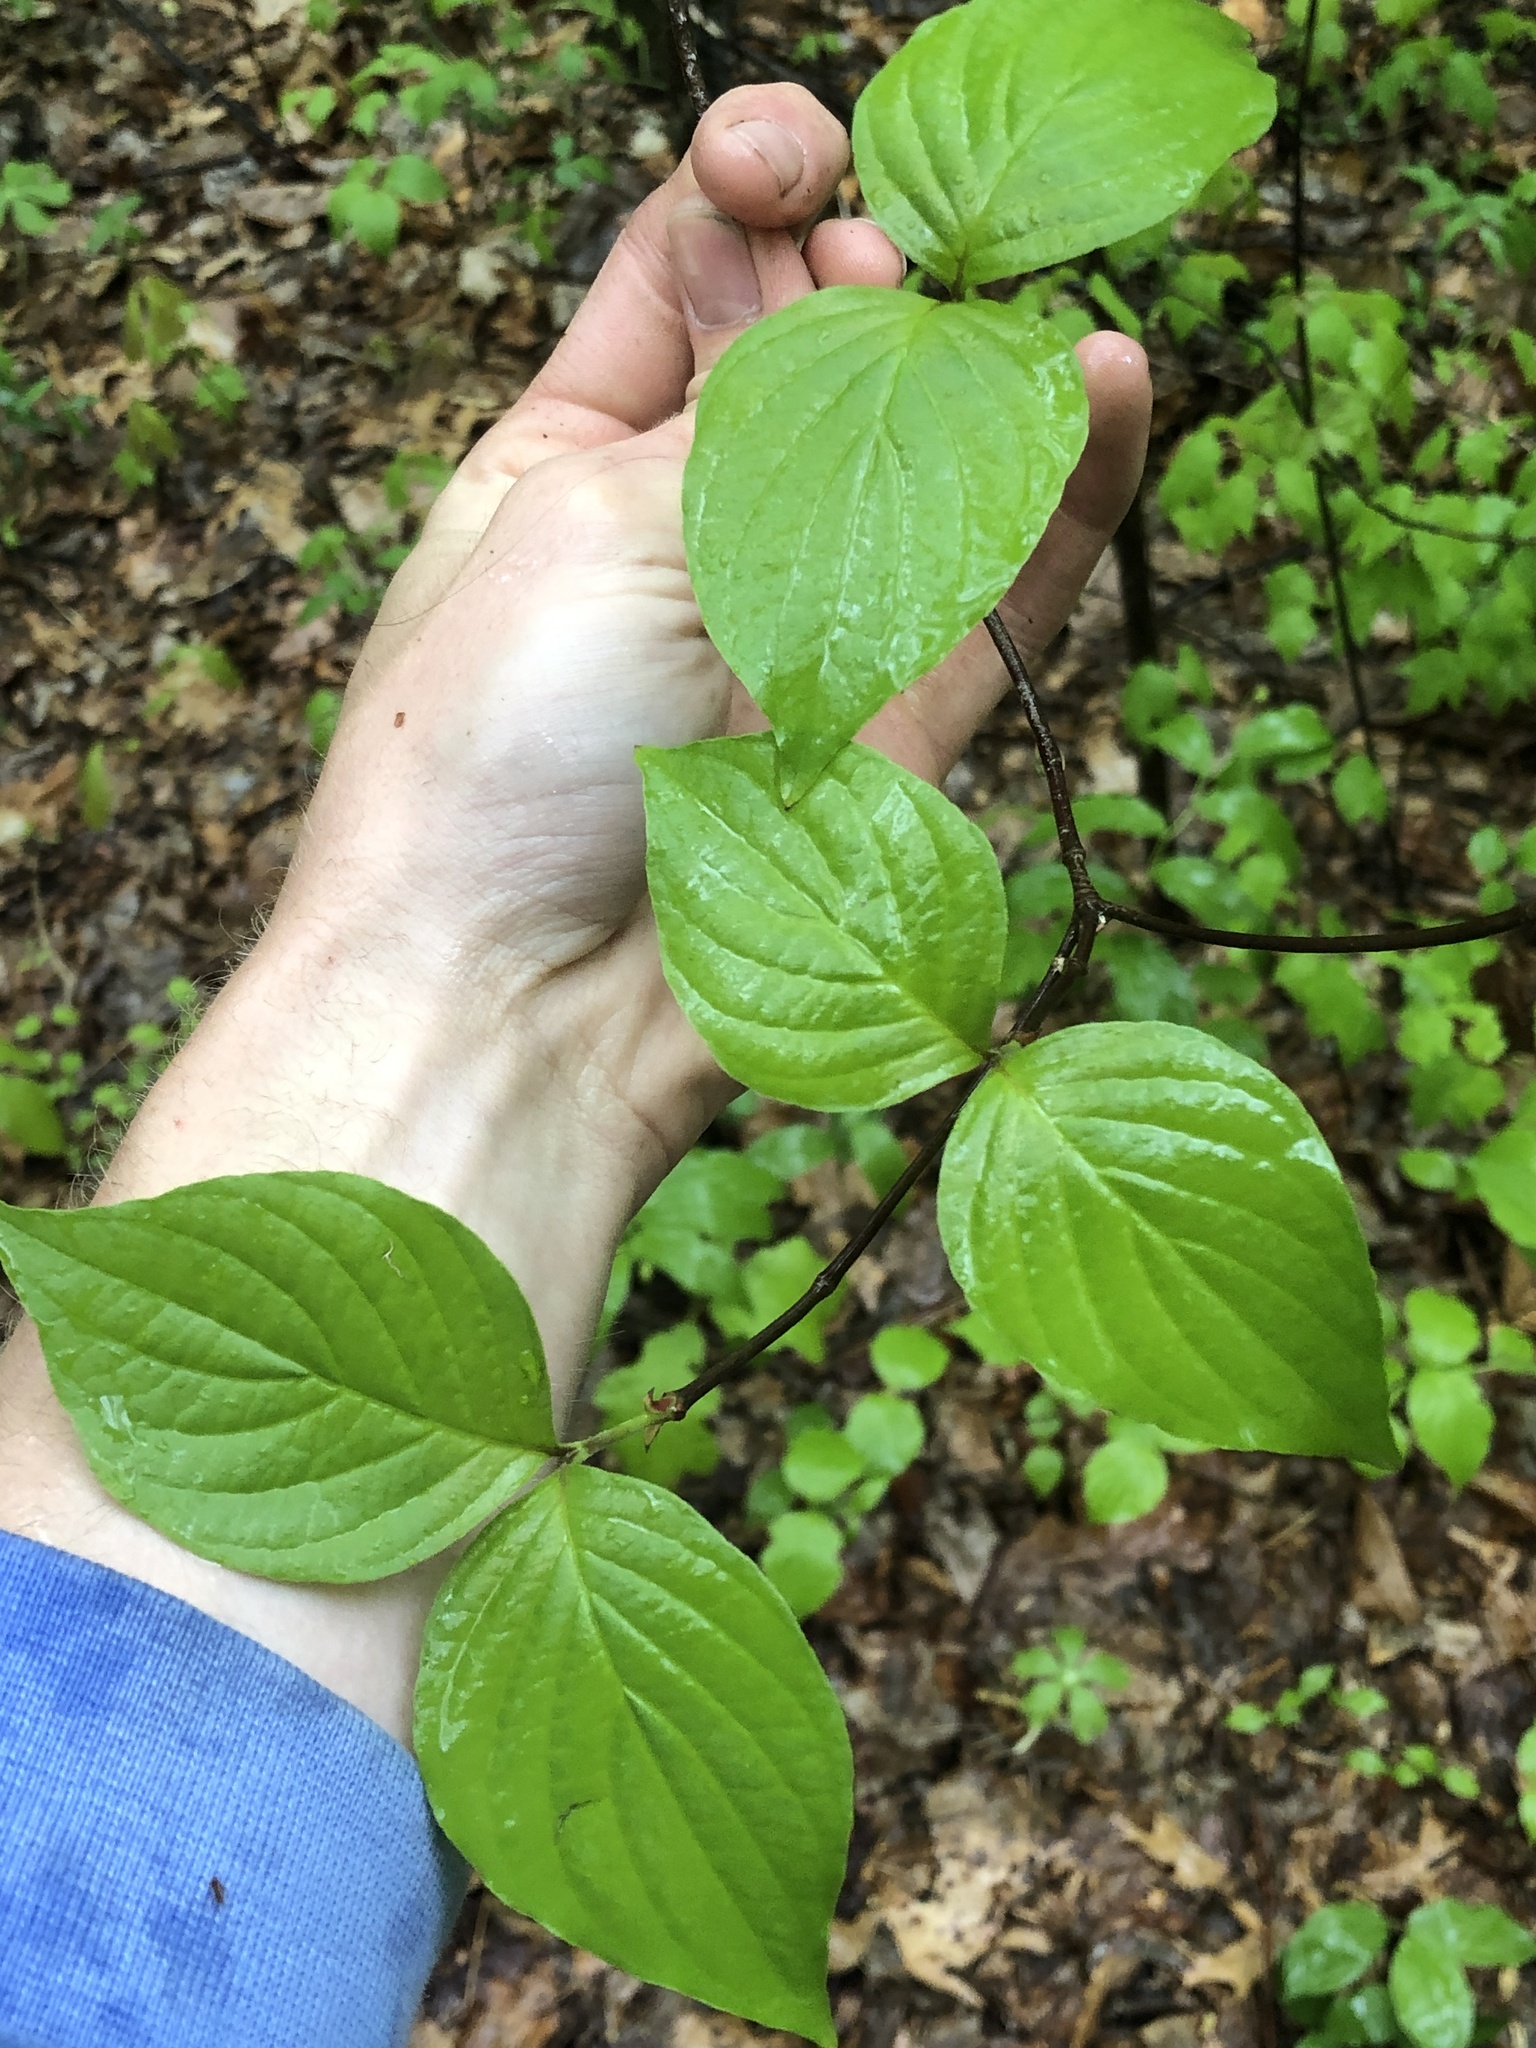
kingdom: Plantae
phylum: Tracheophyta
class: Magnoliopsida
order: Cornales
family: Cornaceae
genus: Cornus
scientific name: Cornus florida
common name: Flowering dogwood
